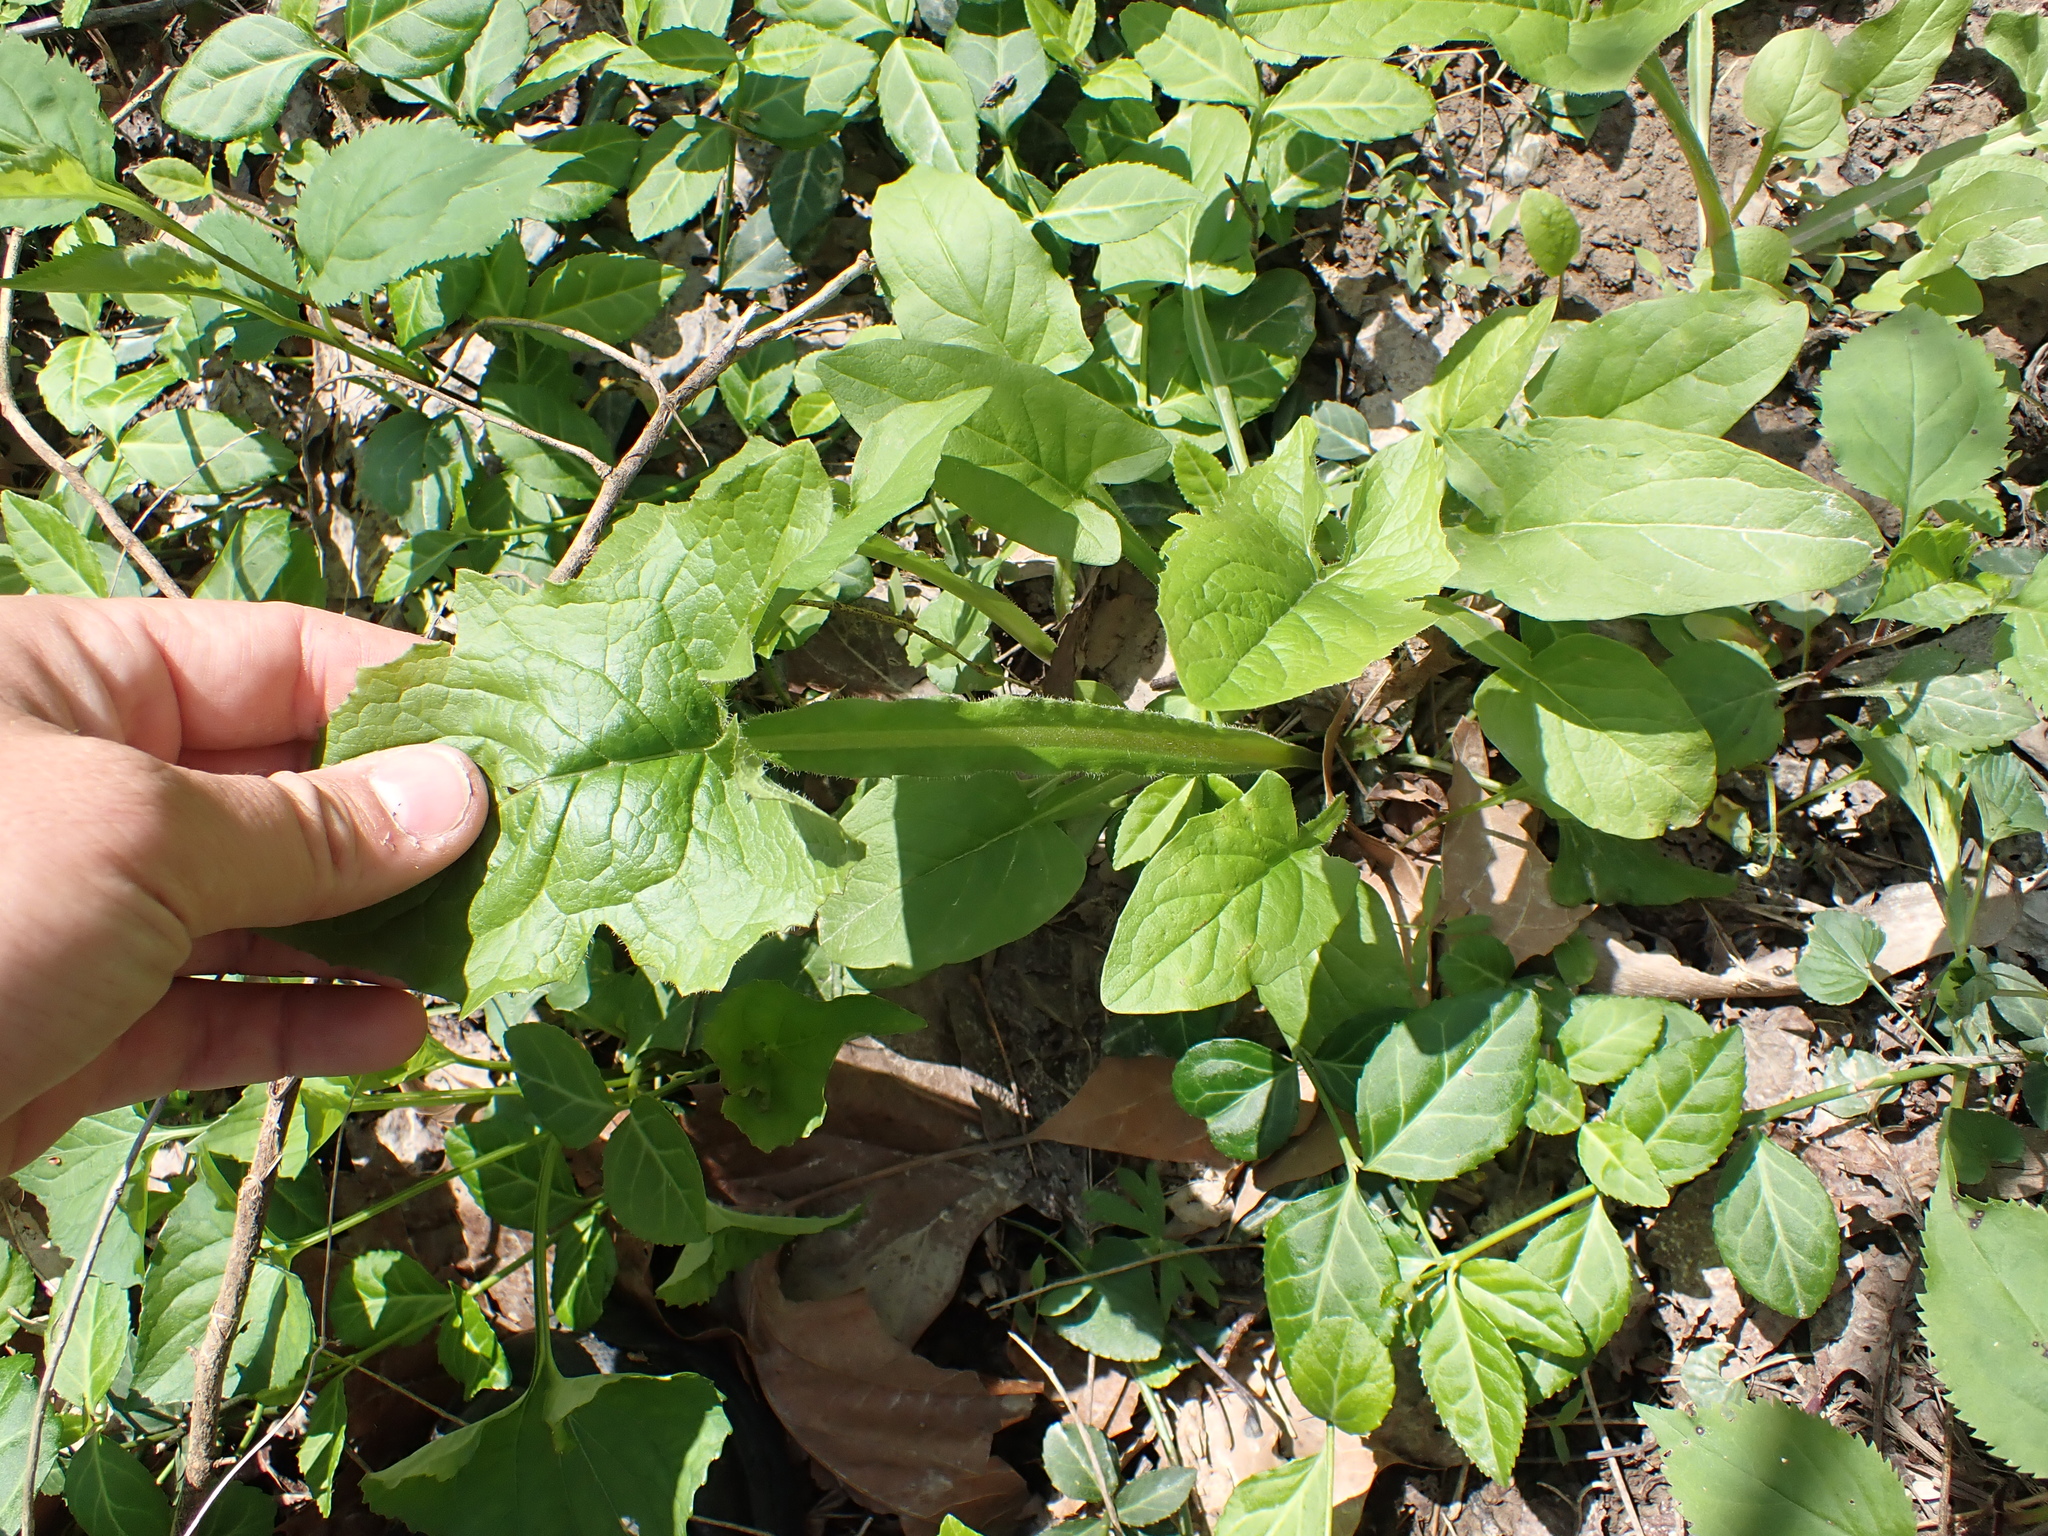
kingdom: Plantae
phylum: Tracheophyta
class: Magnoliopsida
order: Asterales
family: Asteraceae
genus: Nabalus
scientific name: Nabalus crepidineus
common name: Nodding rattlesnakeroot
